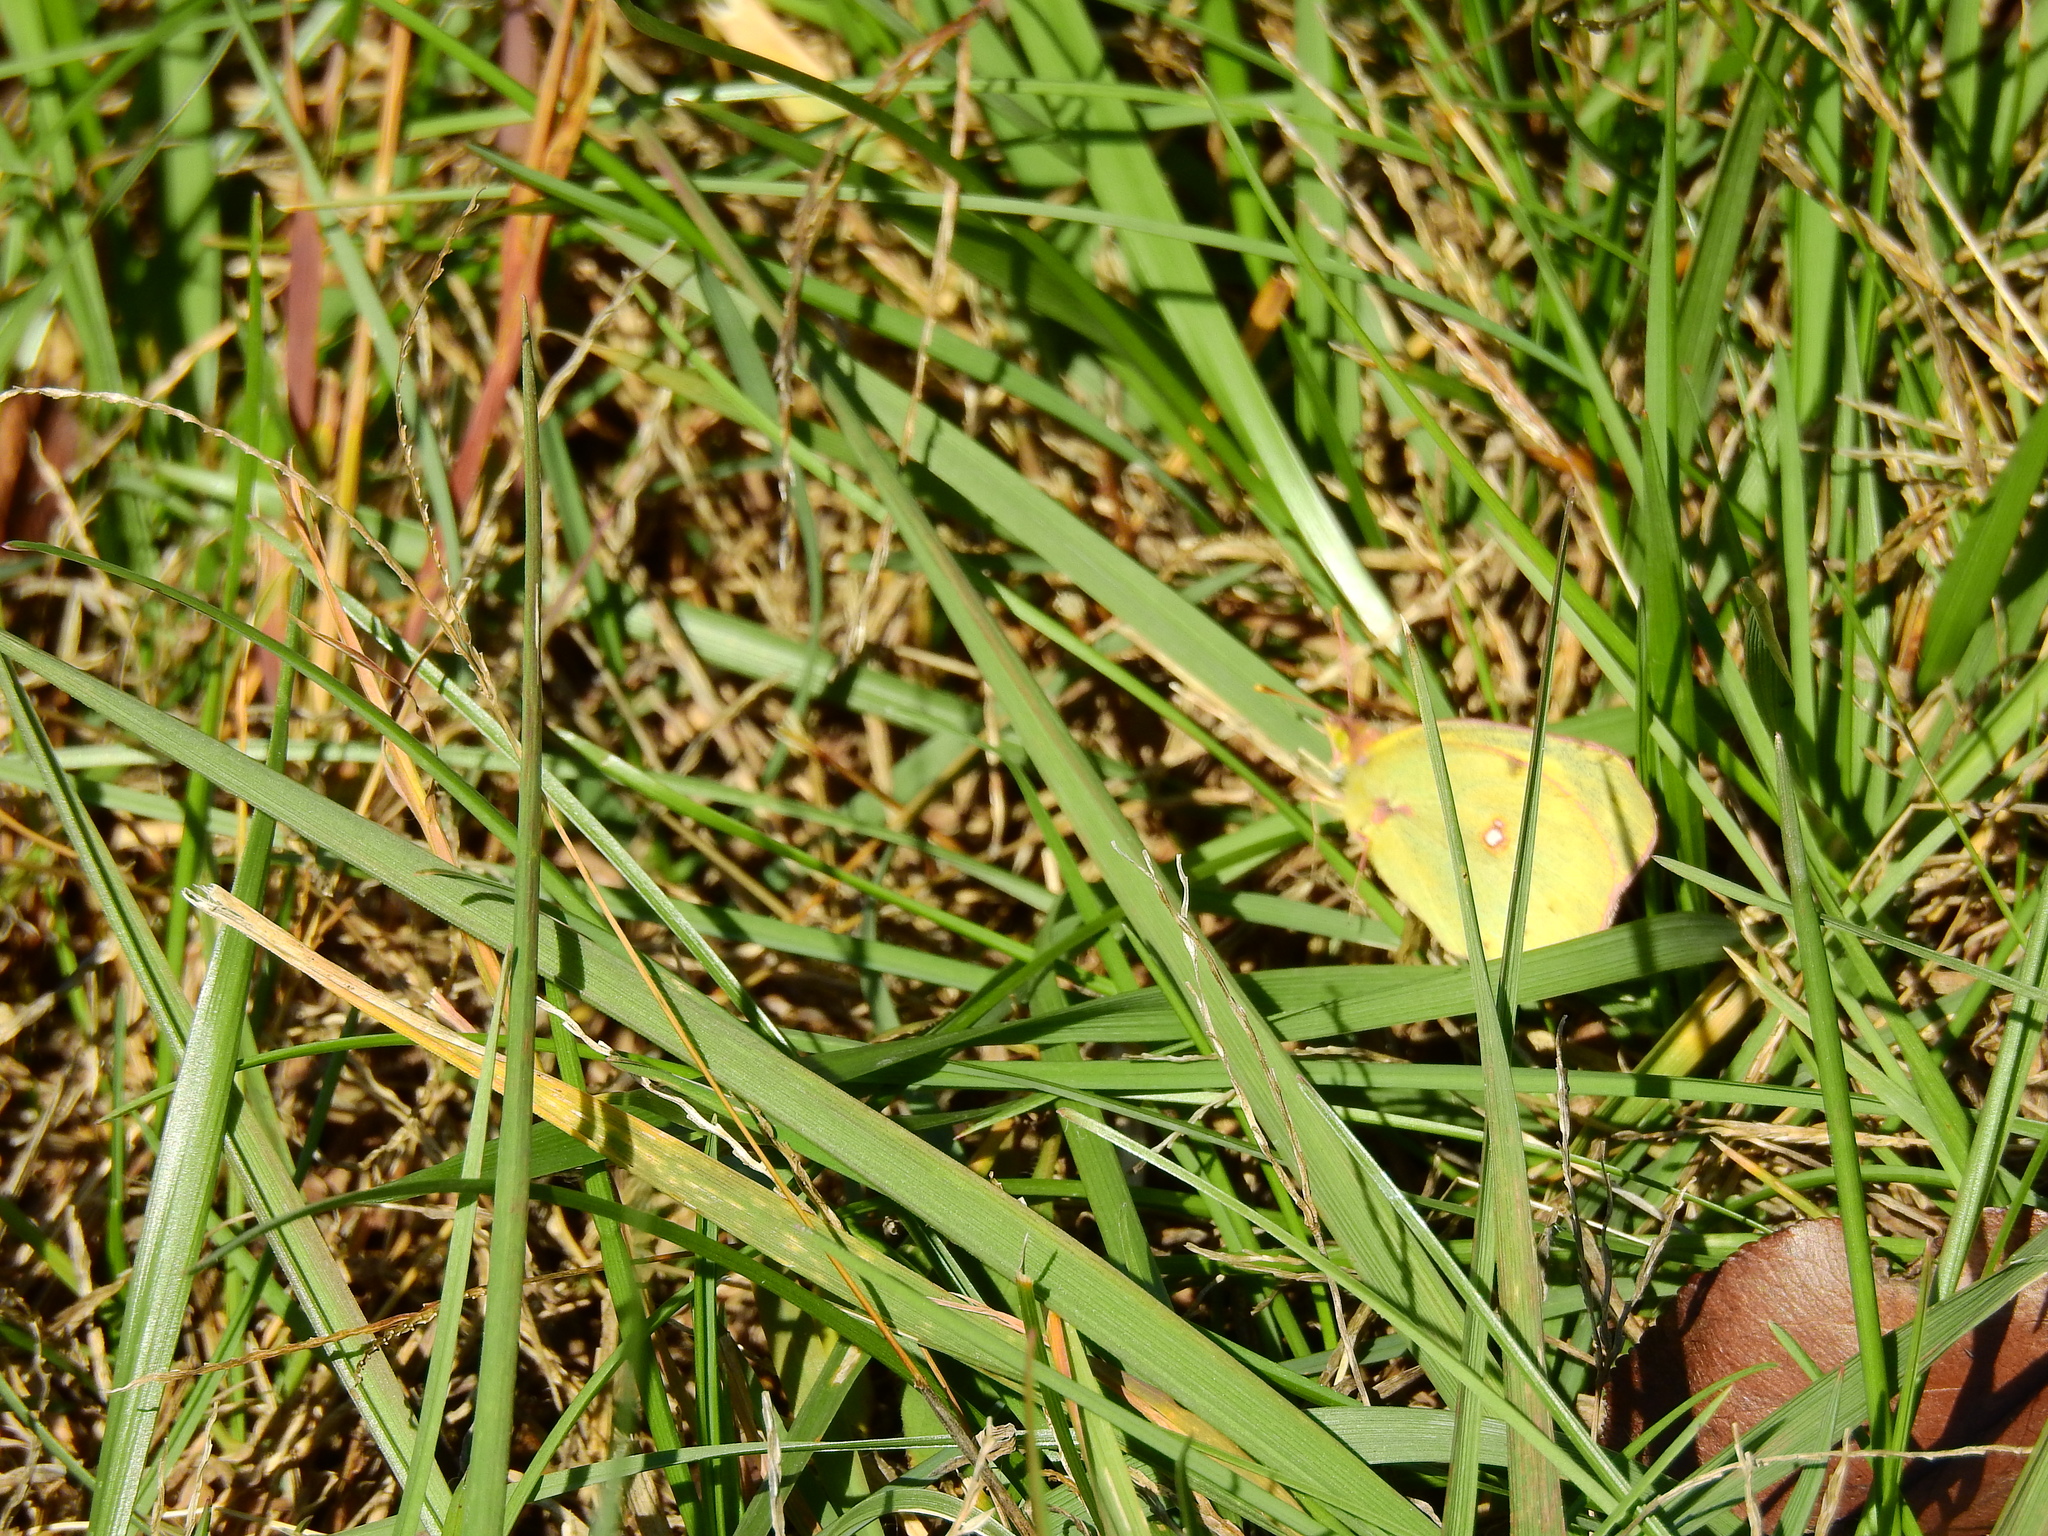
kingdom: Animalia
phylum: Arthropoda
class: Insecta
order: Lepidoptera
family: Pieridae
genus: Colias
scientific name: Colias eurytheme
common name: Alfalfa butterfly
